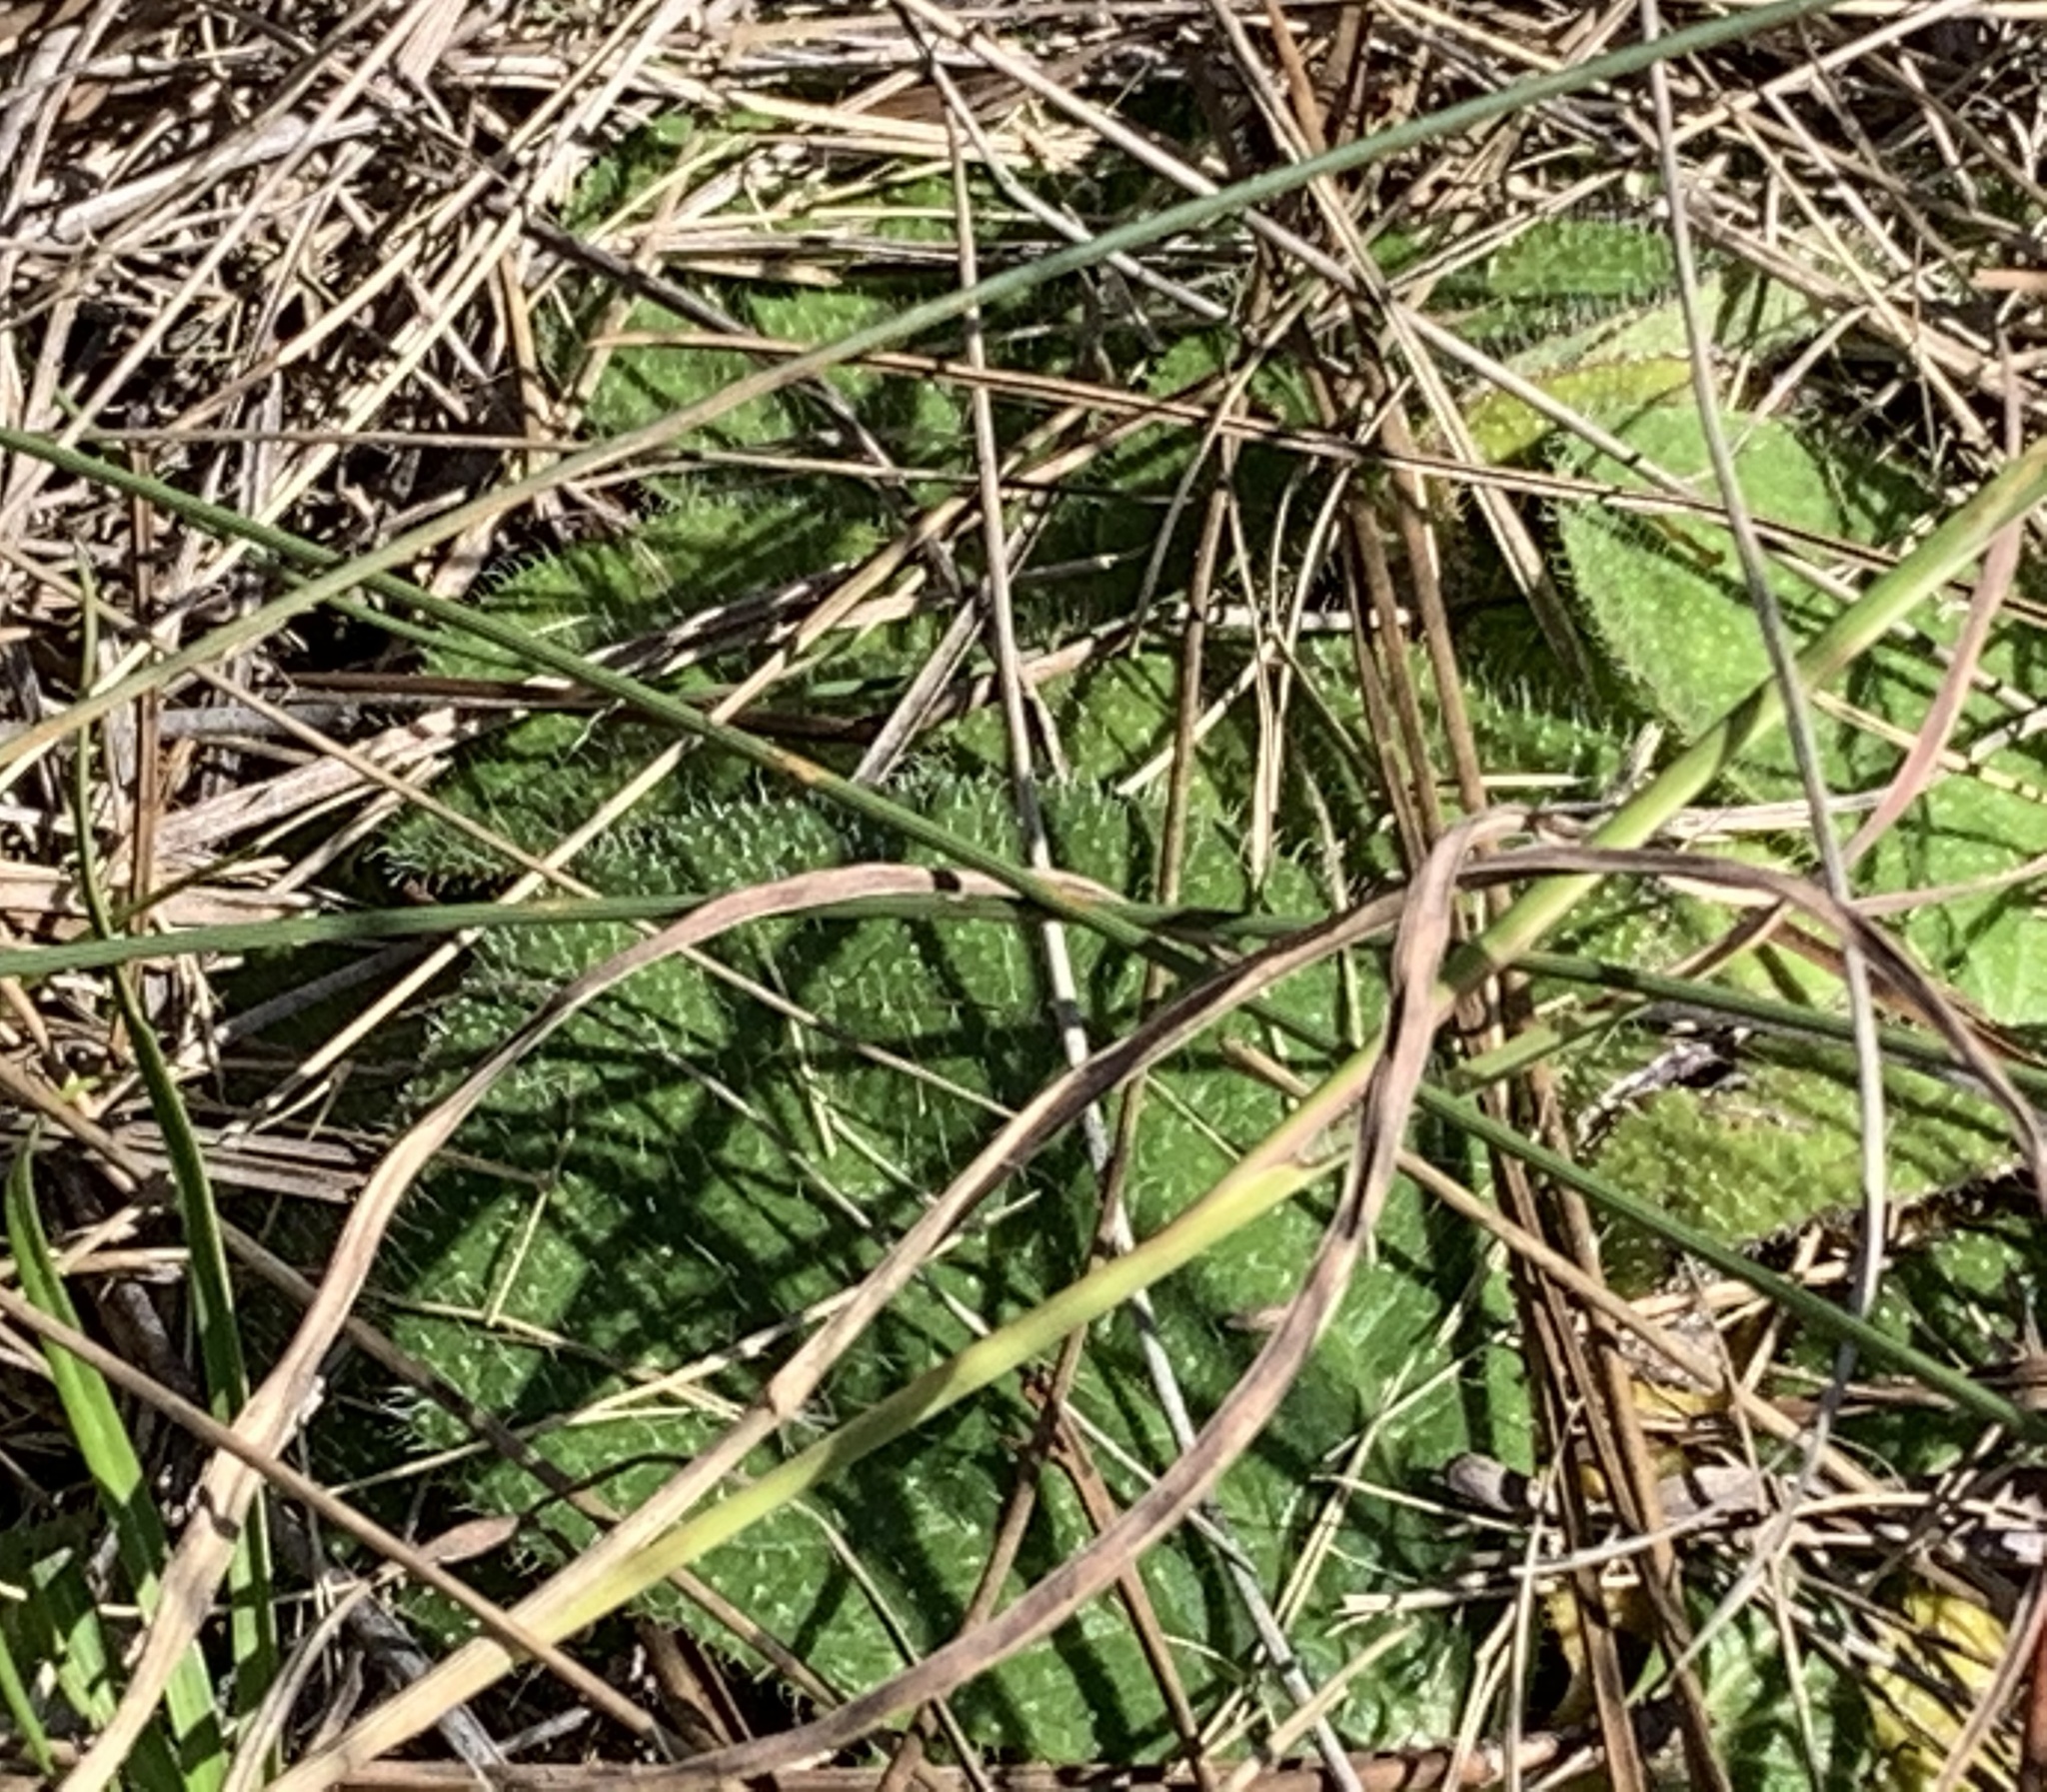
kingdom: Plantae
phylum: Tracheophyta
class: Magnoliopsida
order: Asterales
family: Asteraceae
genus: Helianthus
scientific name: Helianthus radula
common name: Pineland sunflower
